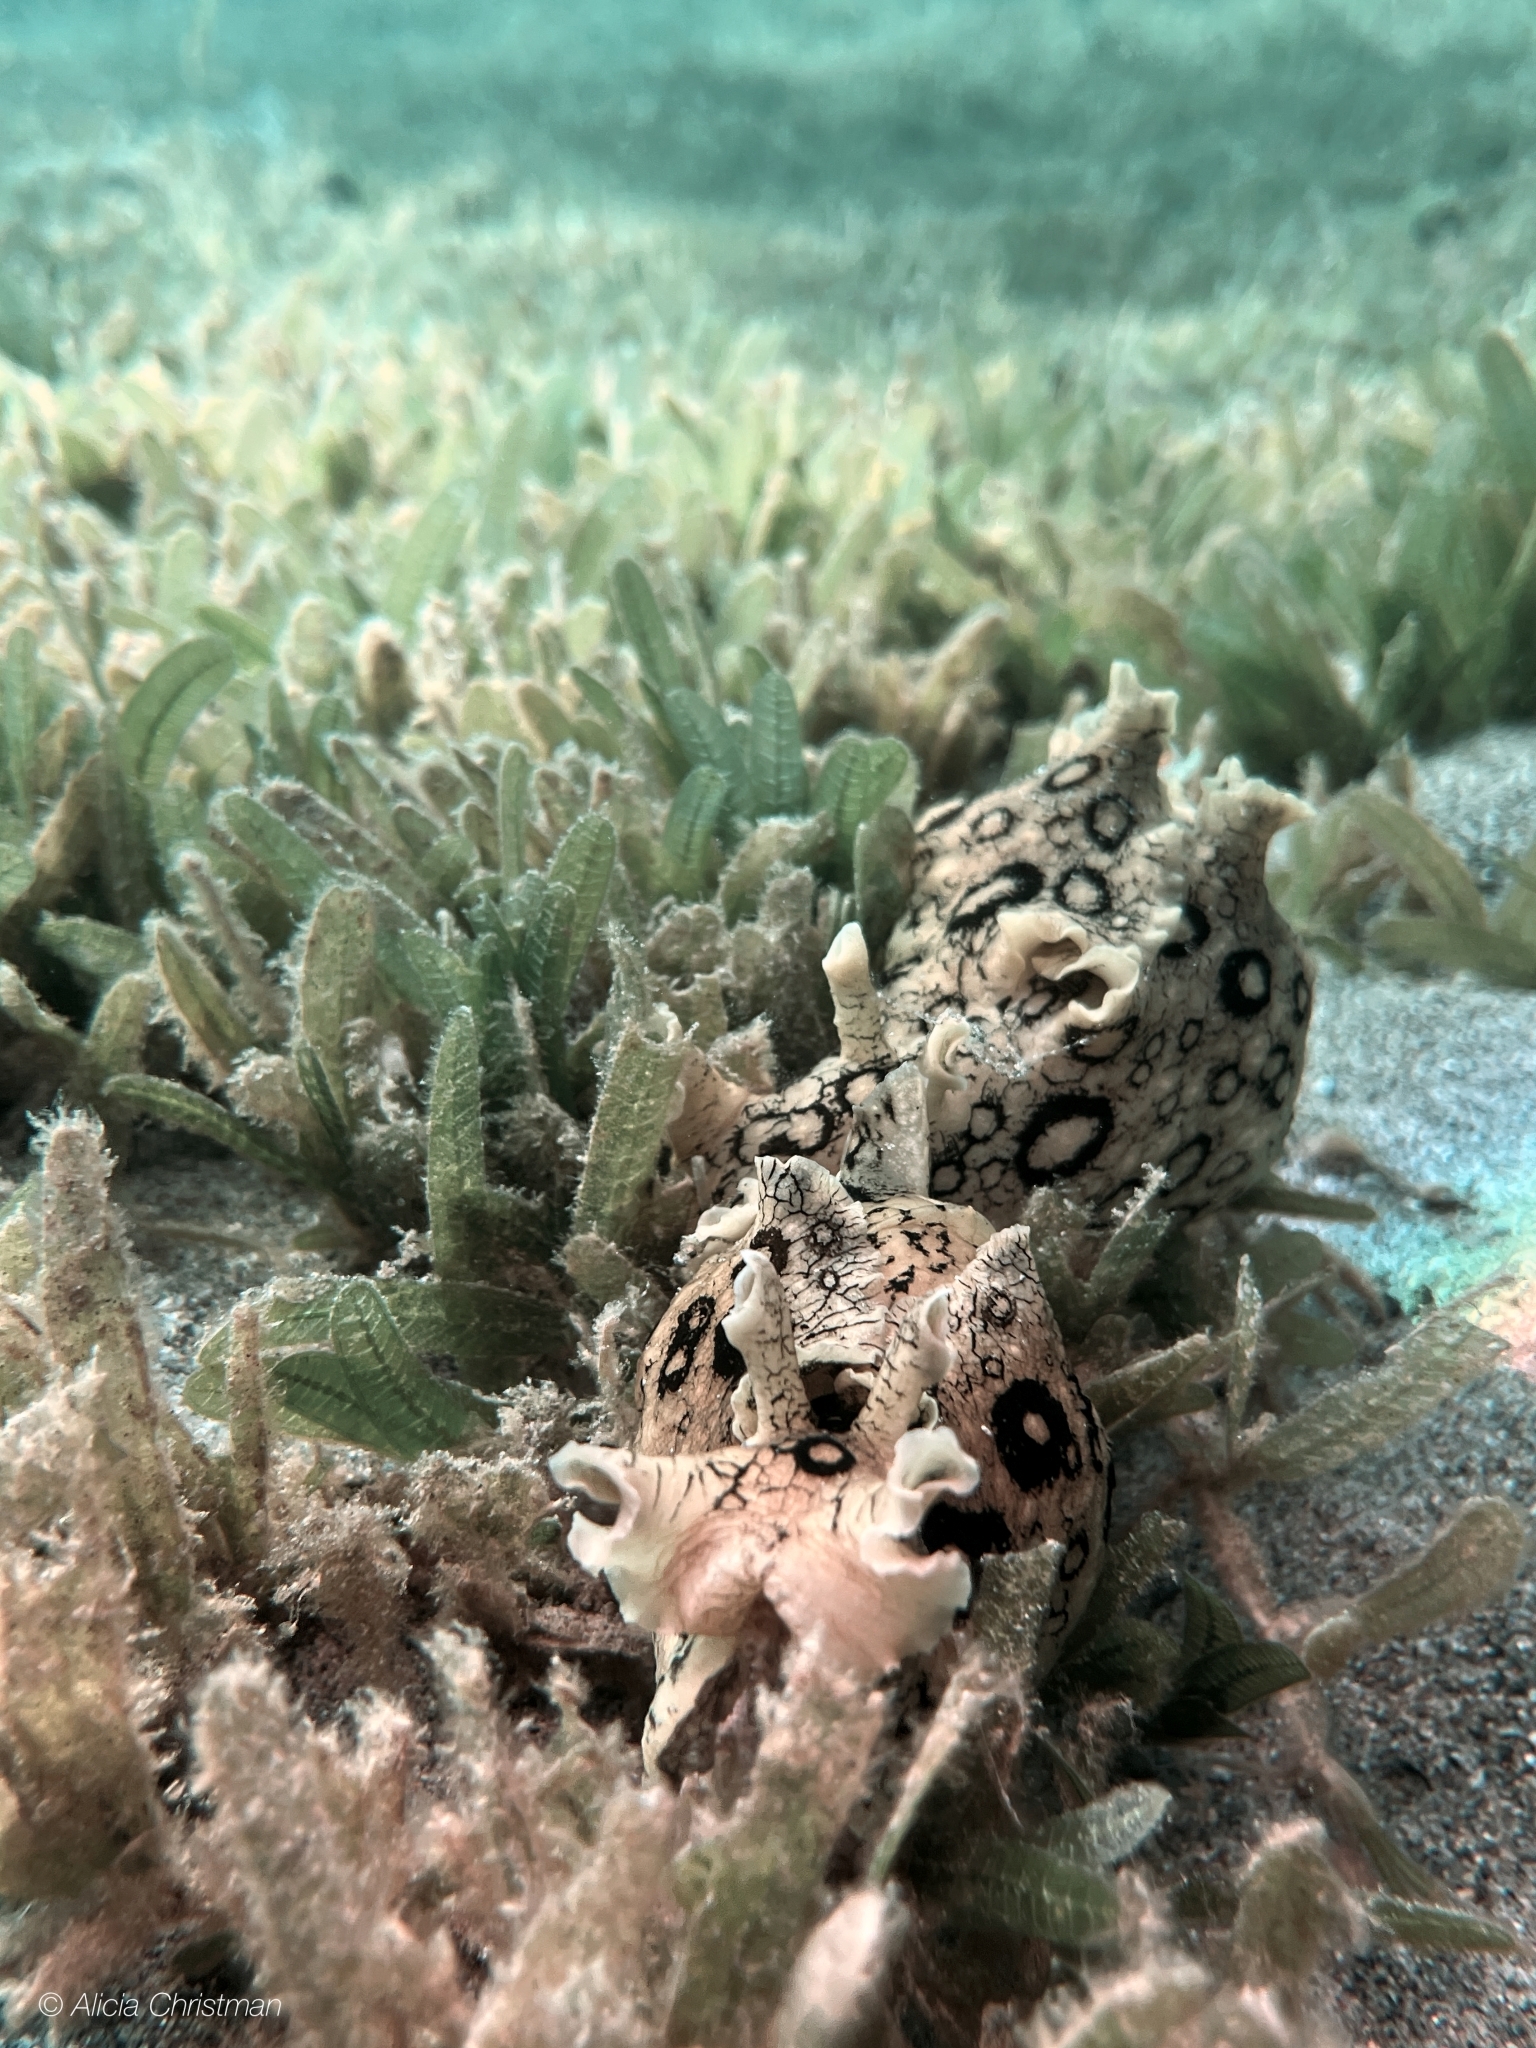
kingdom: Animalia
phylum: Mollusca
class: Gastropoda
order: Aplysiida
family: Aplysiidae
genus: Aplysia
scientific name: Aplysia dactylomela
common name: Large-spotted sea hare
